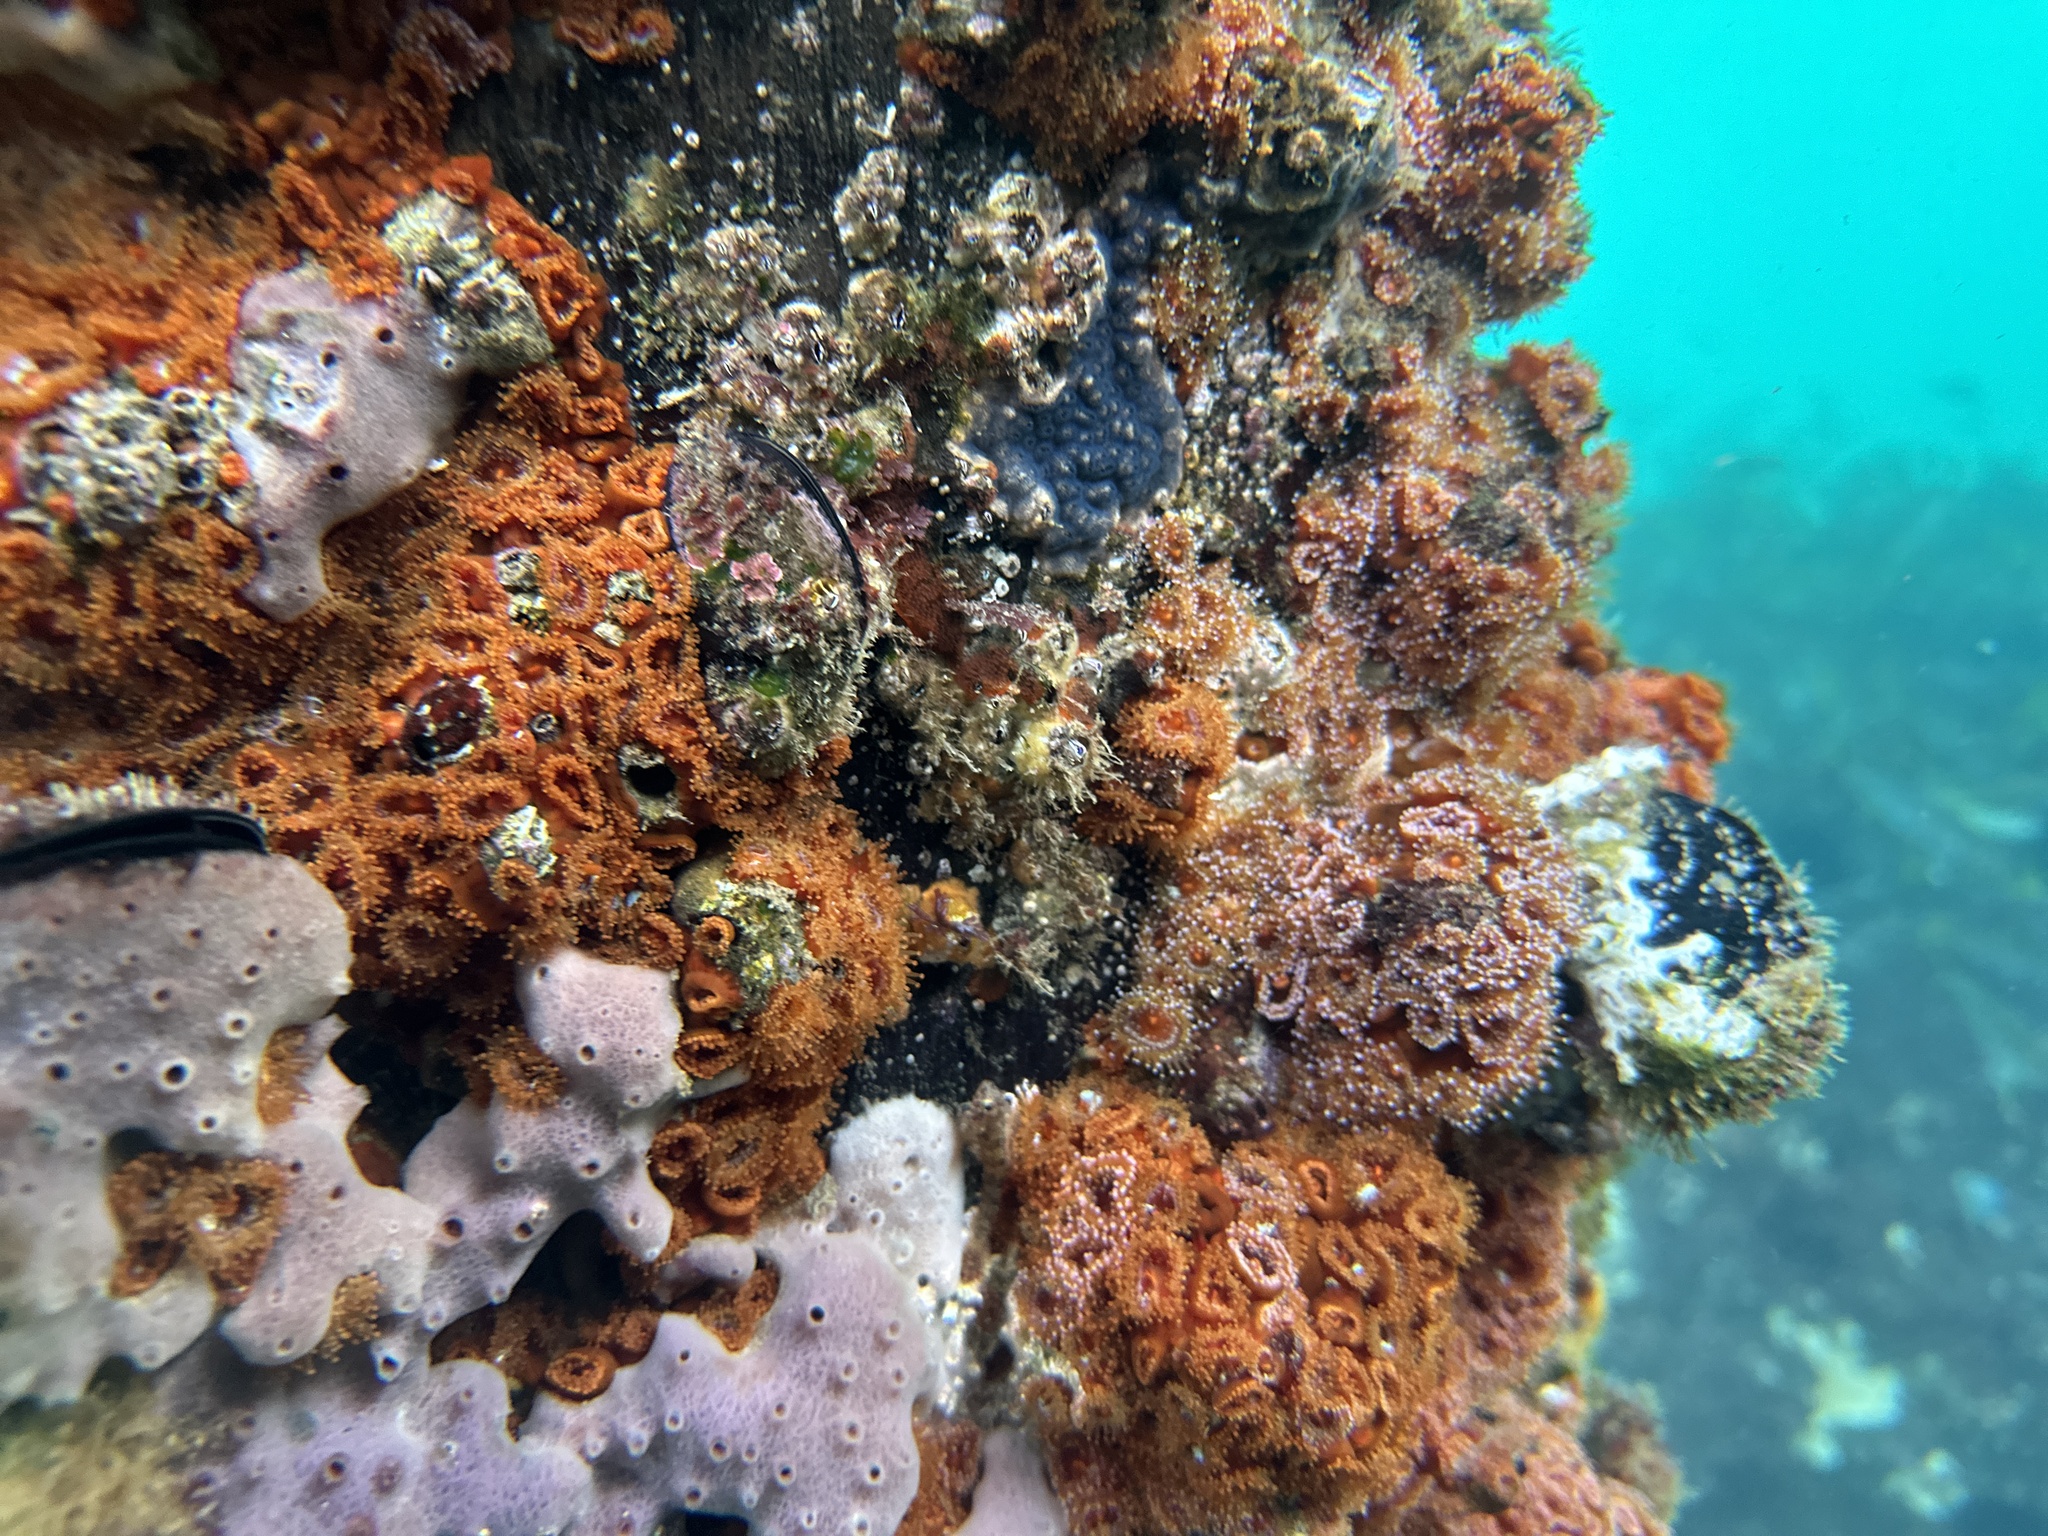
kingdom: Animalia
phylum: Cnidaria
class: Anthozoa
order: Corallimorpharia
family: Corallimorphidae
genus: Corynactis
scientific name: Corynactis australis
